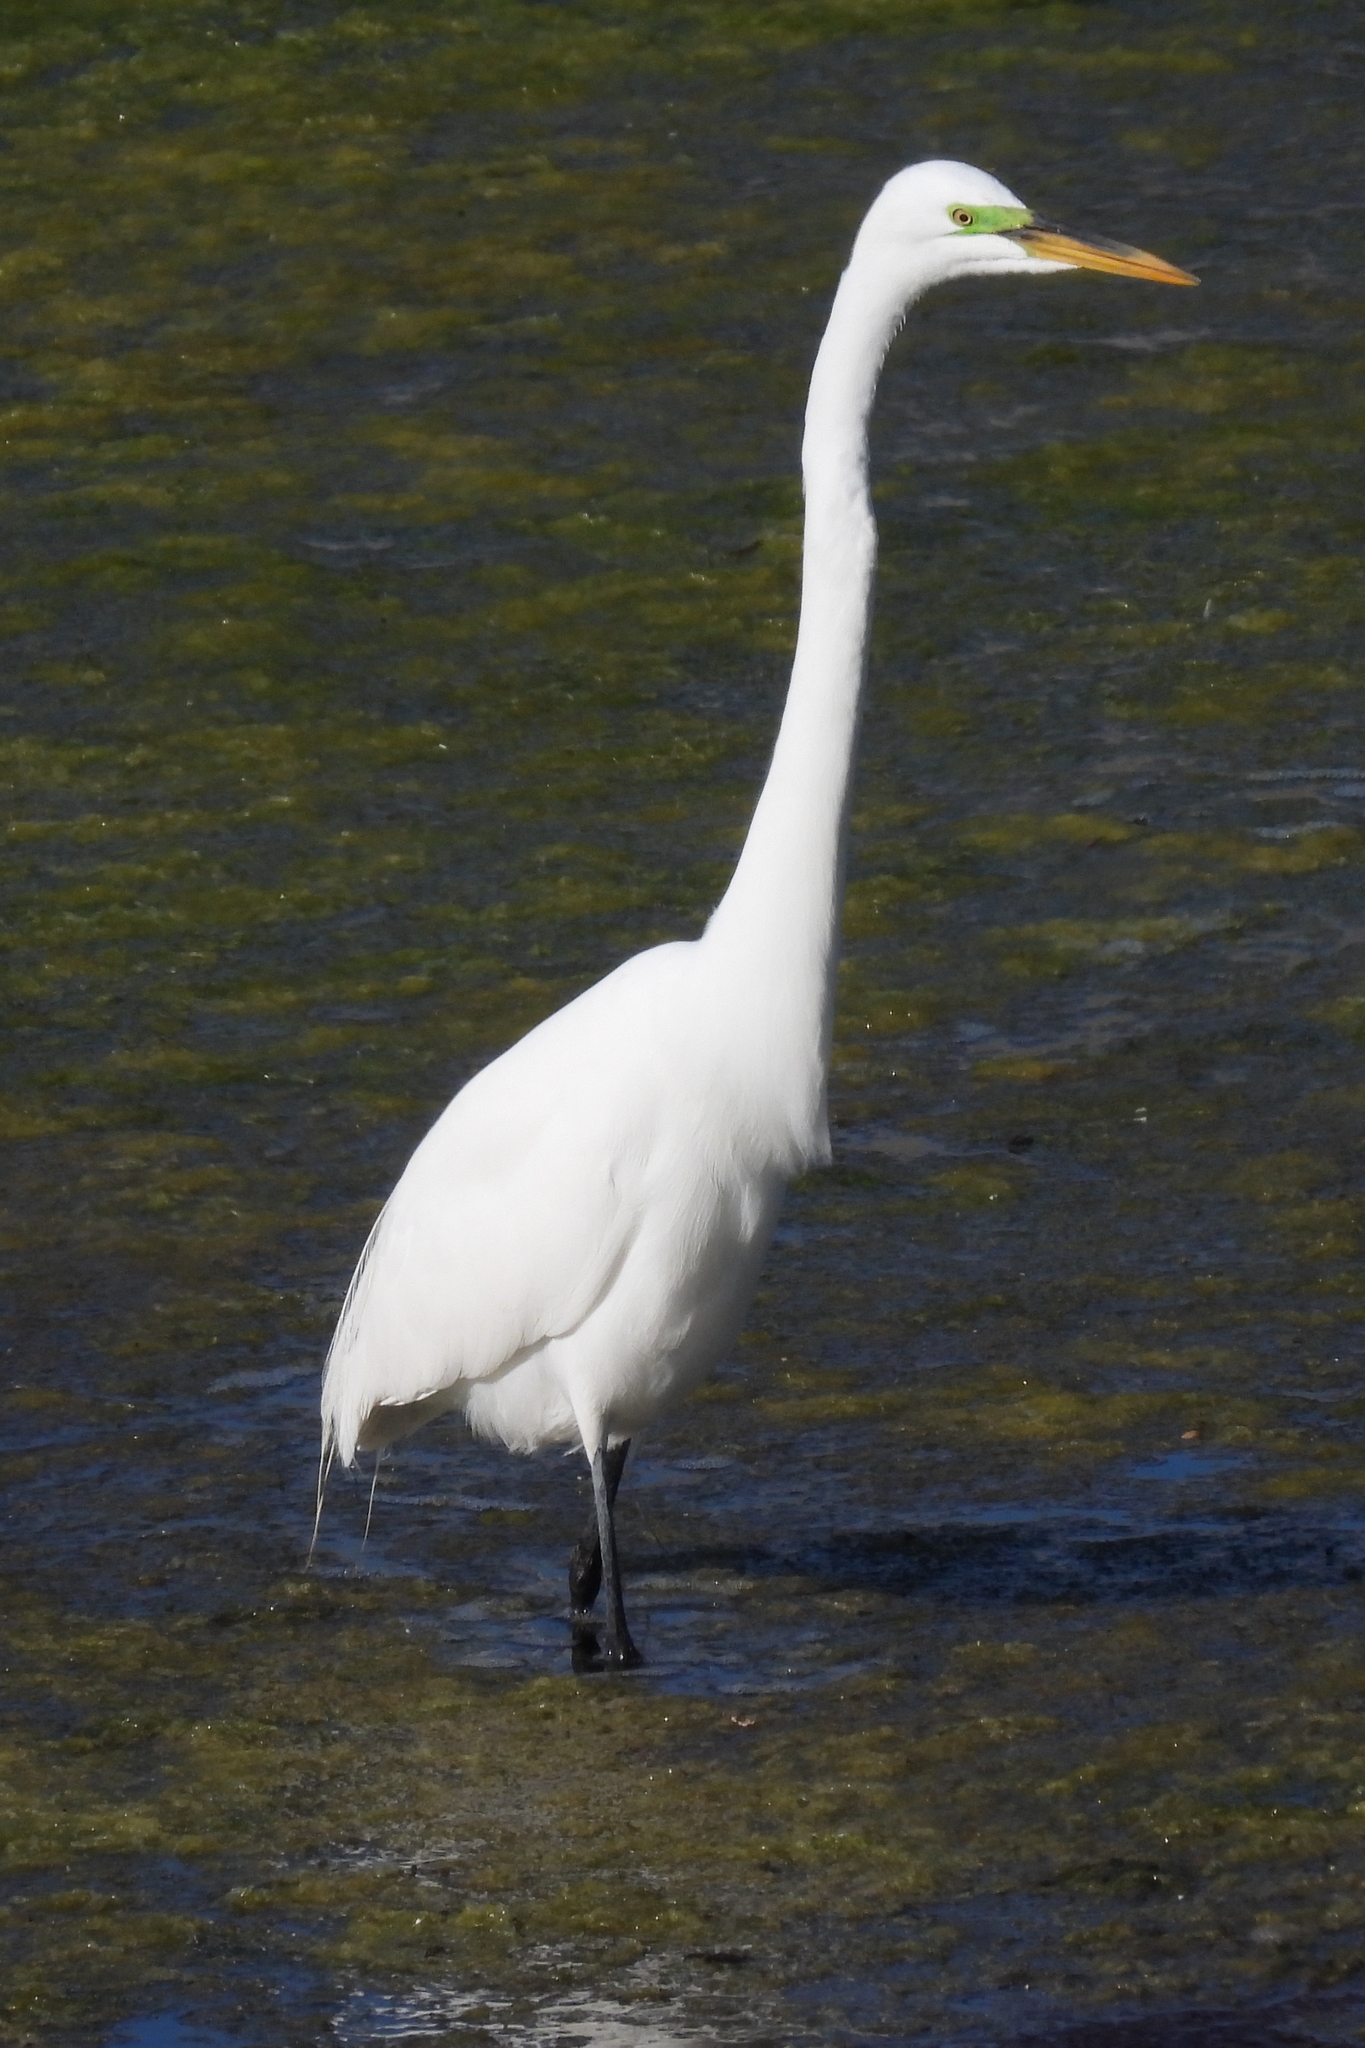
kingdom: Animalia
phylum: Chordata
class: Aves
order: Pelecaniformes
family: Ardeidae
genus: Ardea
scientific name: Ardea alba
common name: Great egret
